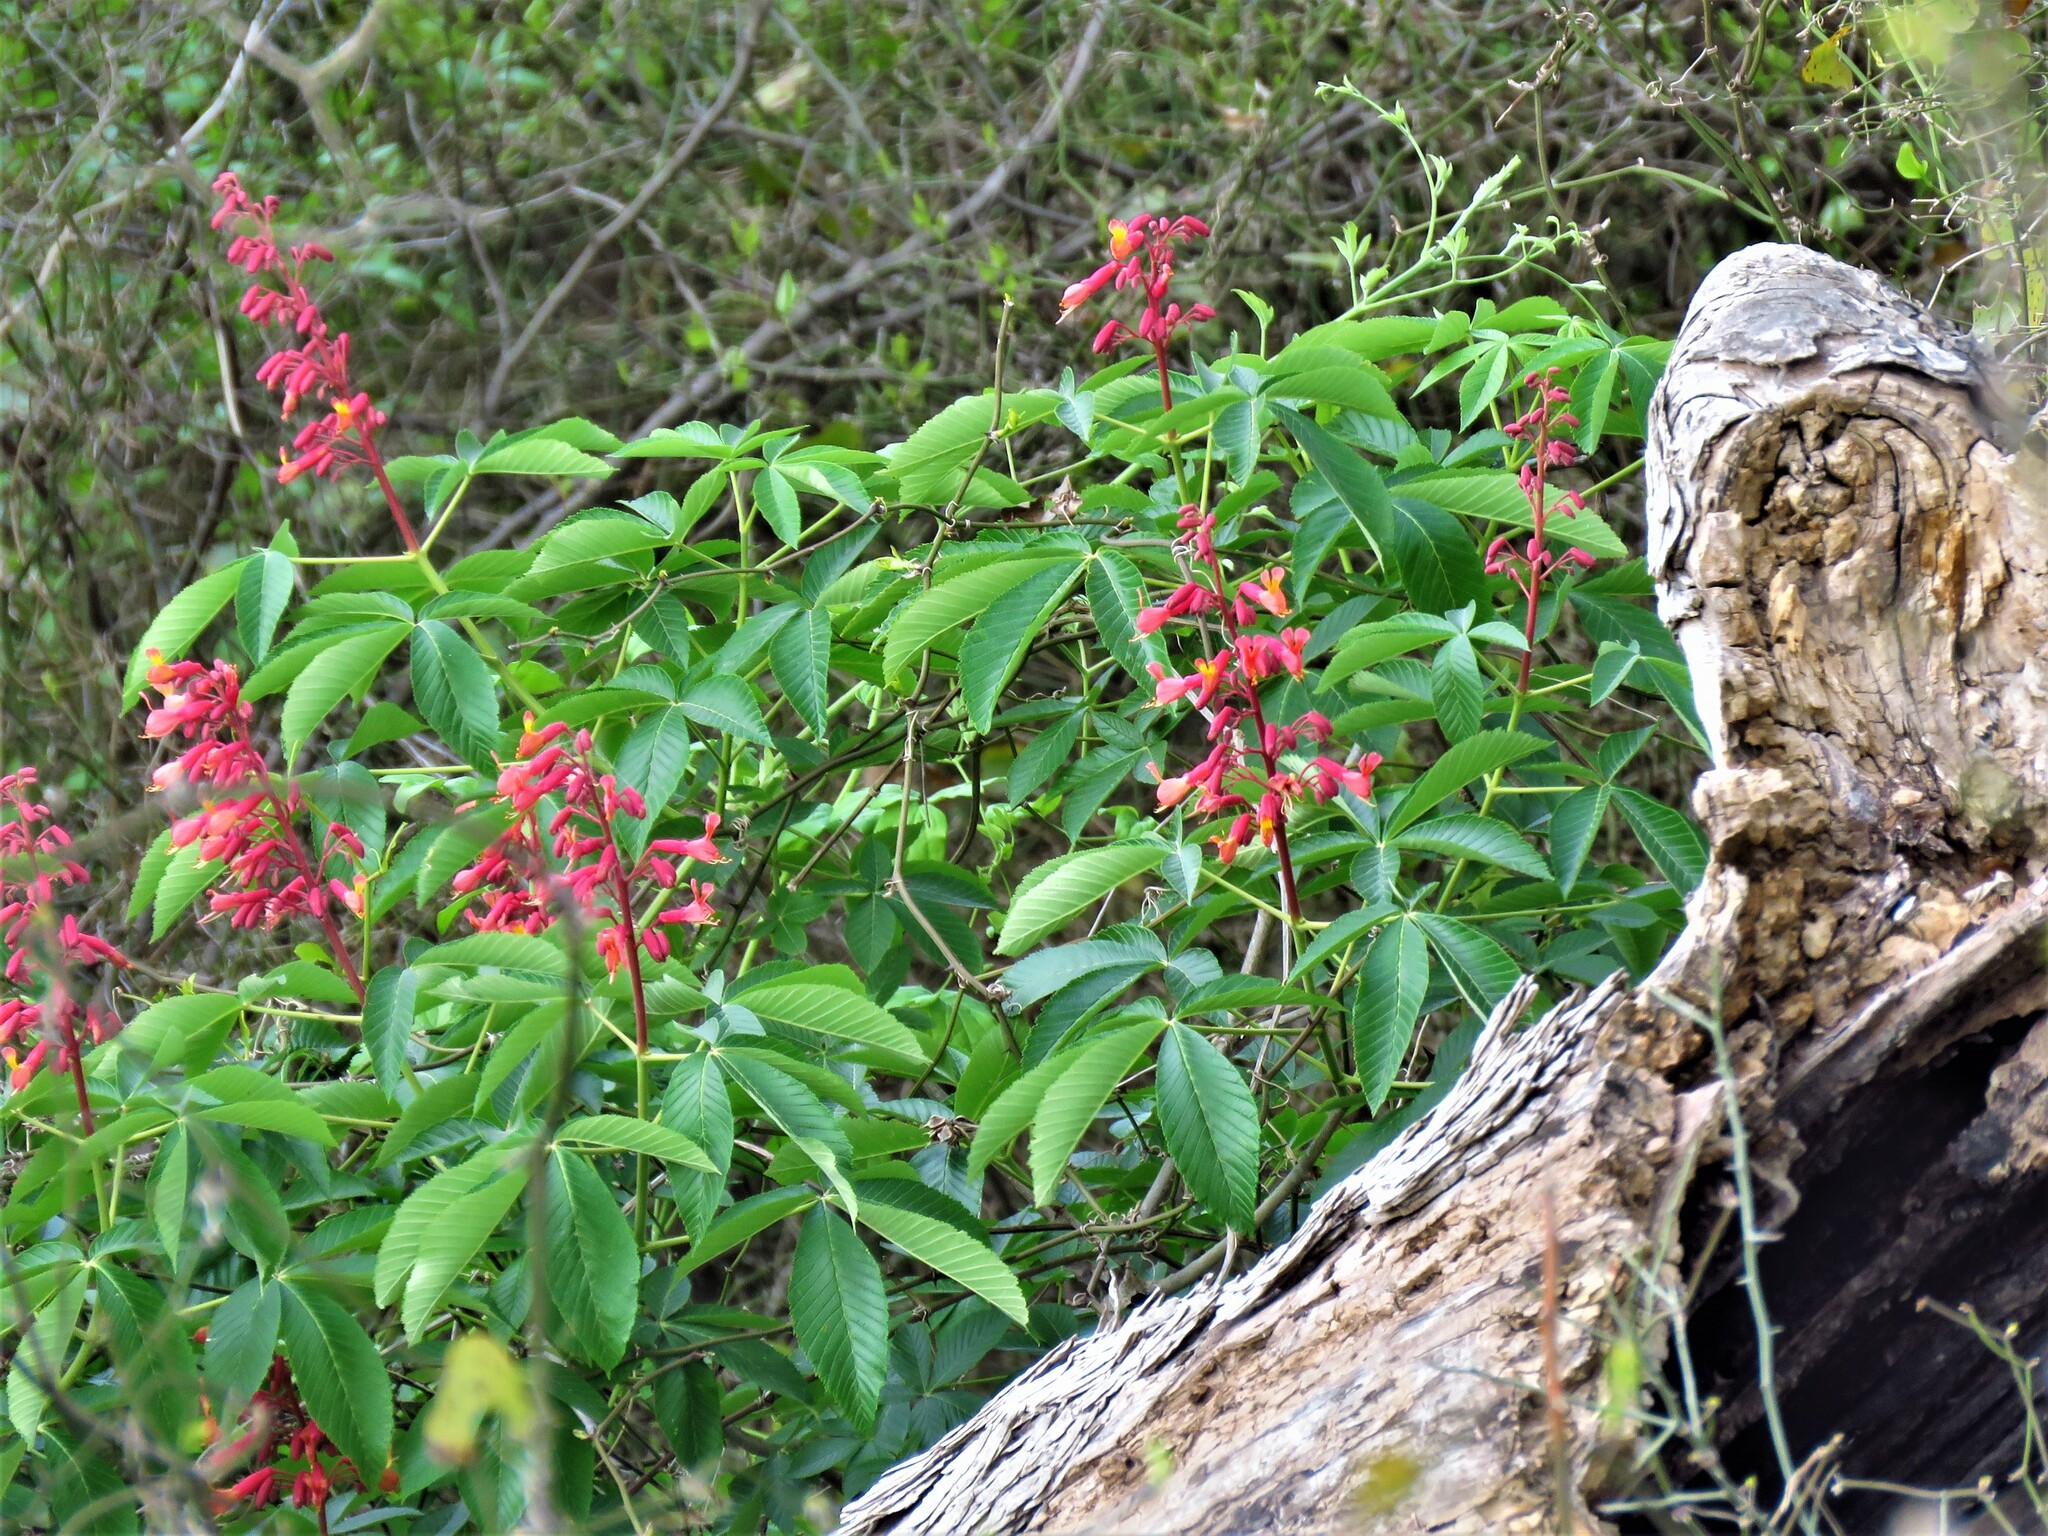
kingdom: Plantae
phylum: Tracheophyta
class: Magnoliopsida
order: Sapindales
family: Sapindaceae
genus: Aesculus
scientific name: Aesculus pavia
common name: Red buckeye
